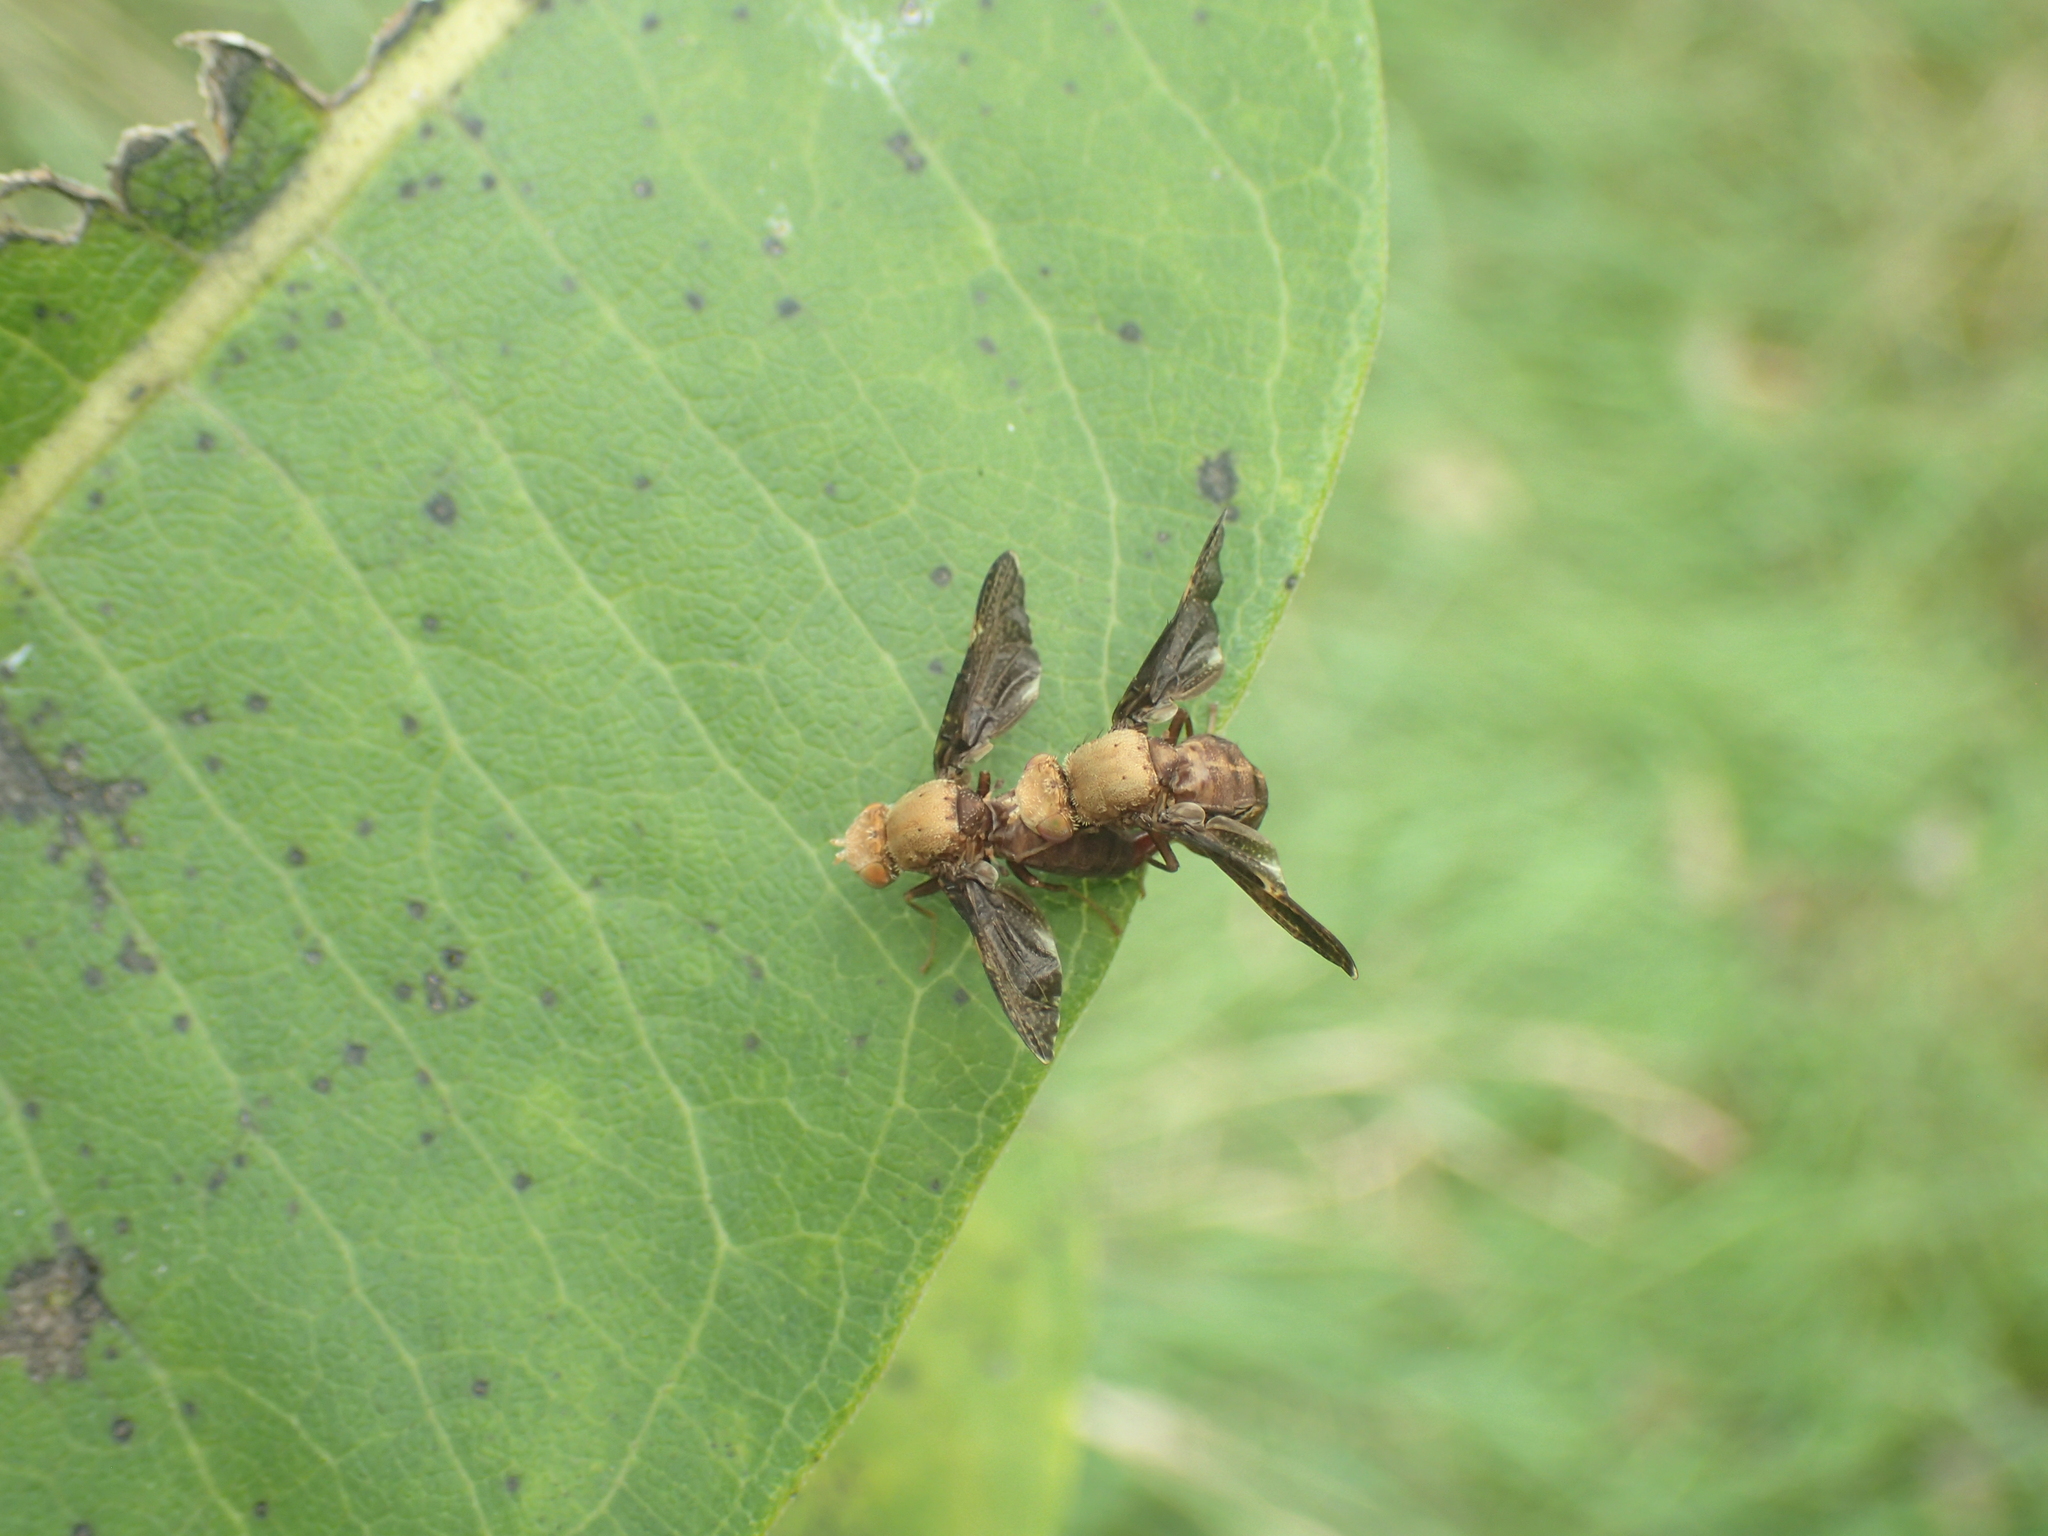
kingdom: Animalia
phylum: Arthropoda
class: Insecta
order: Diptera
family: Tephritidae
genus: Eurosta
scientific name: Eurosta comma
